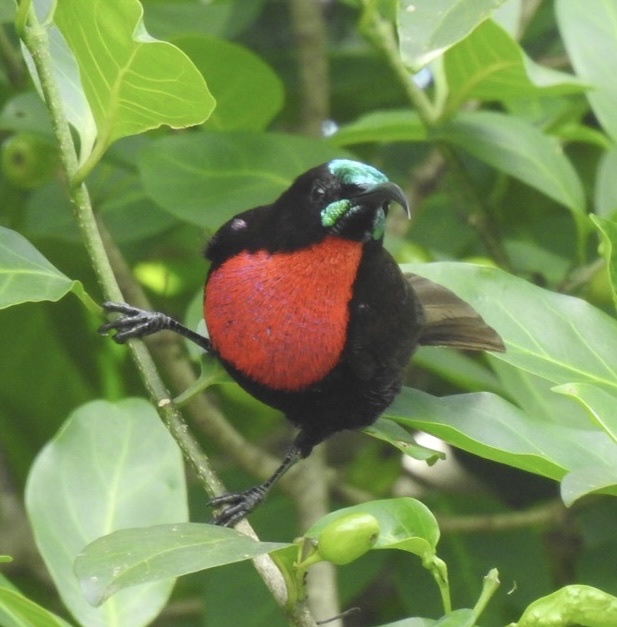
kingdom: Animalia
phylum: Chordata
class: Aves
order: Passeriformes
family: Nectariniidae
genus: Chalcomitra
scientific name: Chalcomitra senegalensis
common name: Scarlet-chested sunbird
